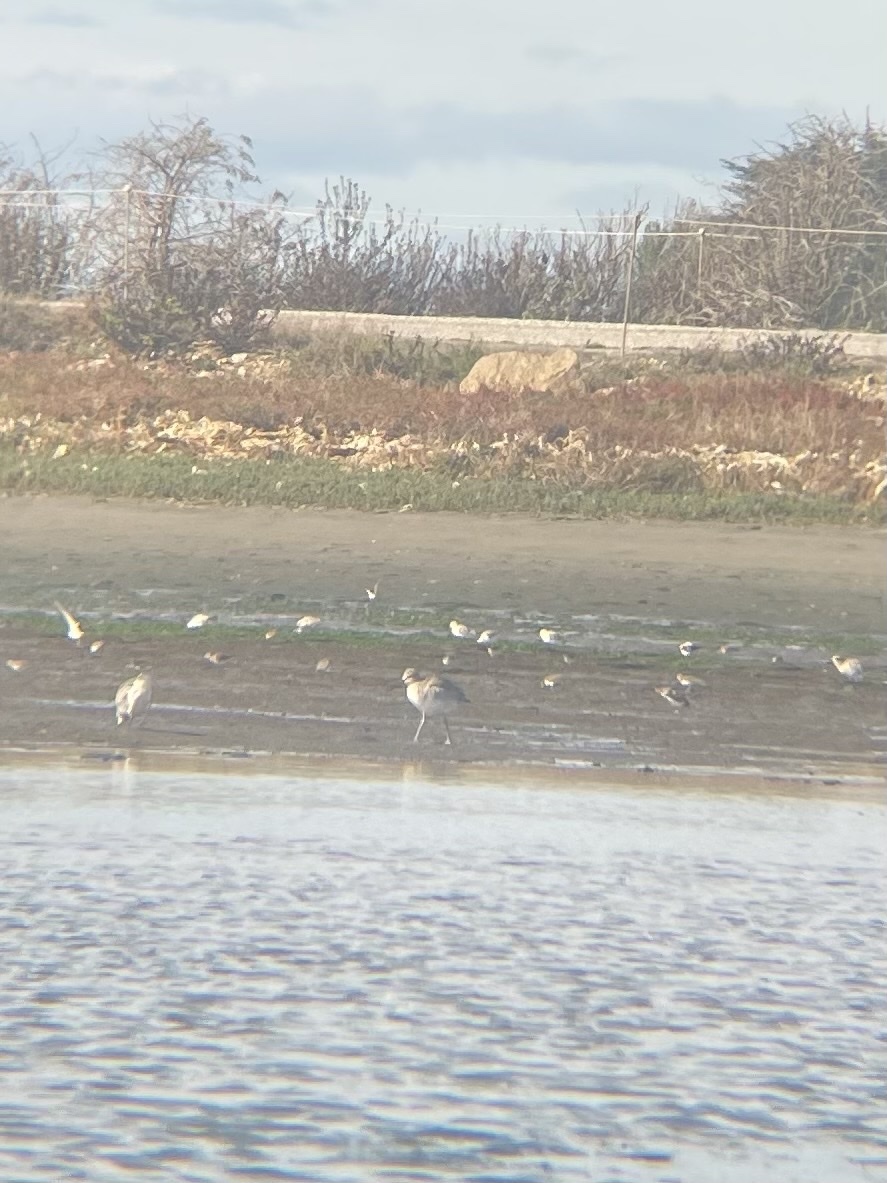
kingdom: Animalia
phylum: Chordata
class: Aves
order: Charadriiformes
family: Scolopacidae
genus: Tringa
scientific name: Tringa semipalmata
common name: Willet
